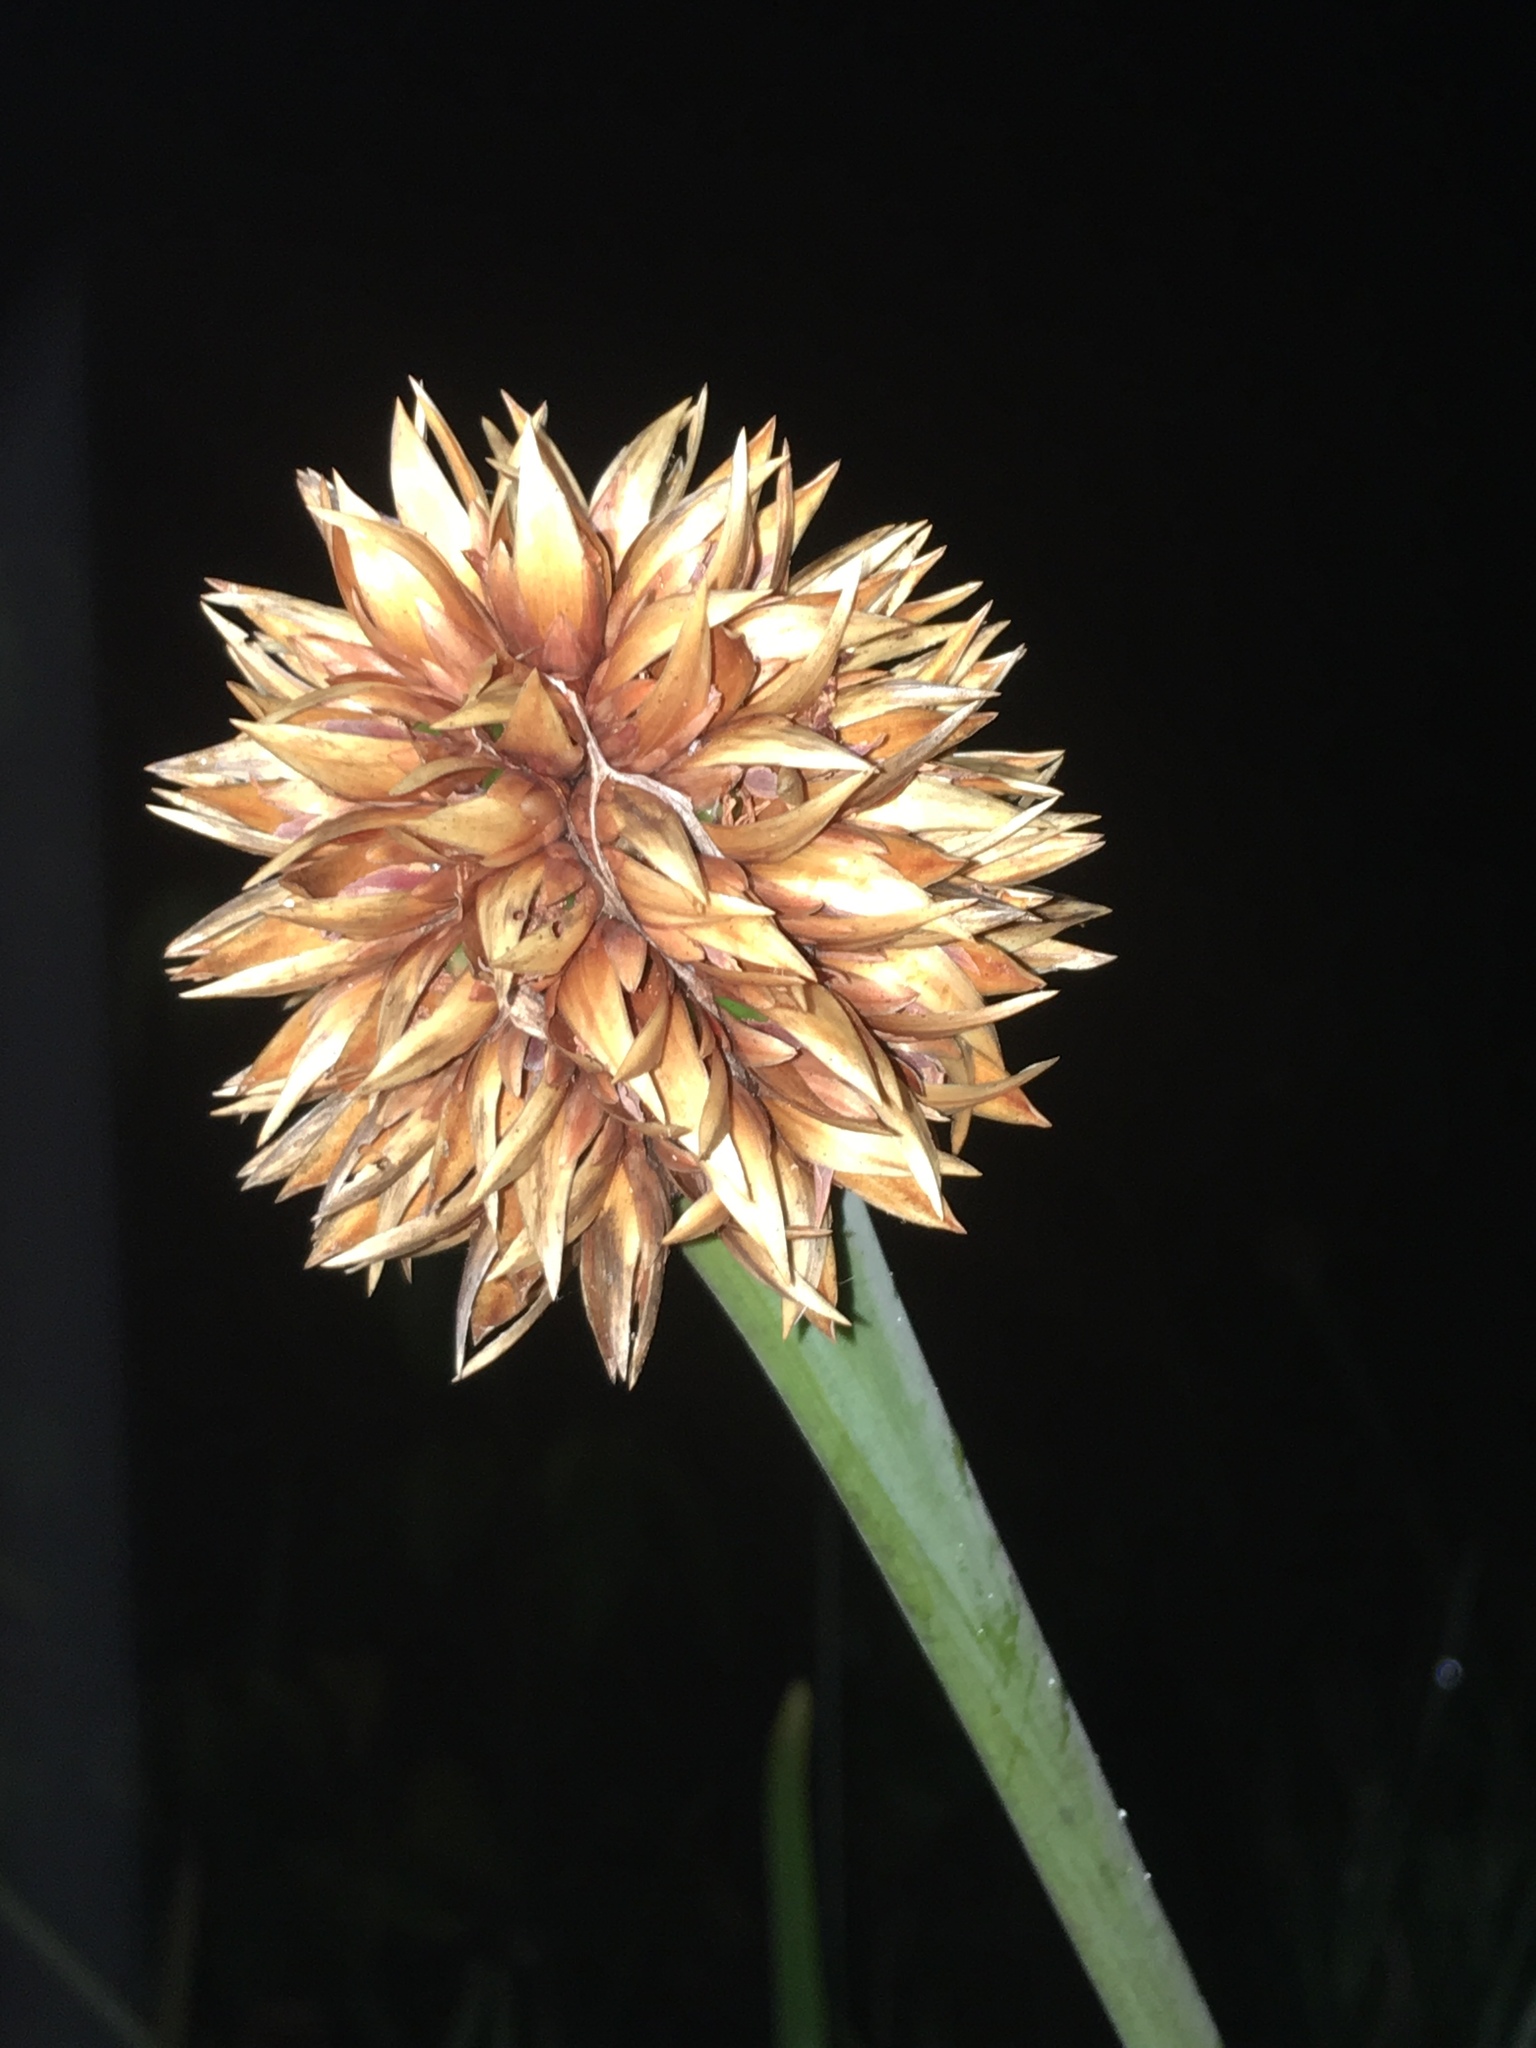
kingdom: Plantae
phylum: Tracheophyta
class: Liliopsida
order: Poales
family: Rapateaceae
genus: Guacamaya
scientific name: Guacamaya superba
